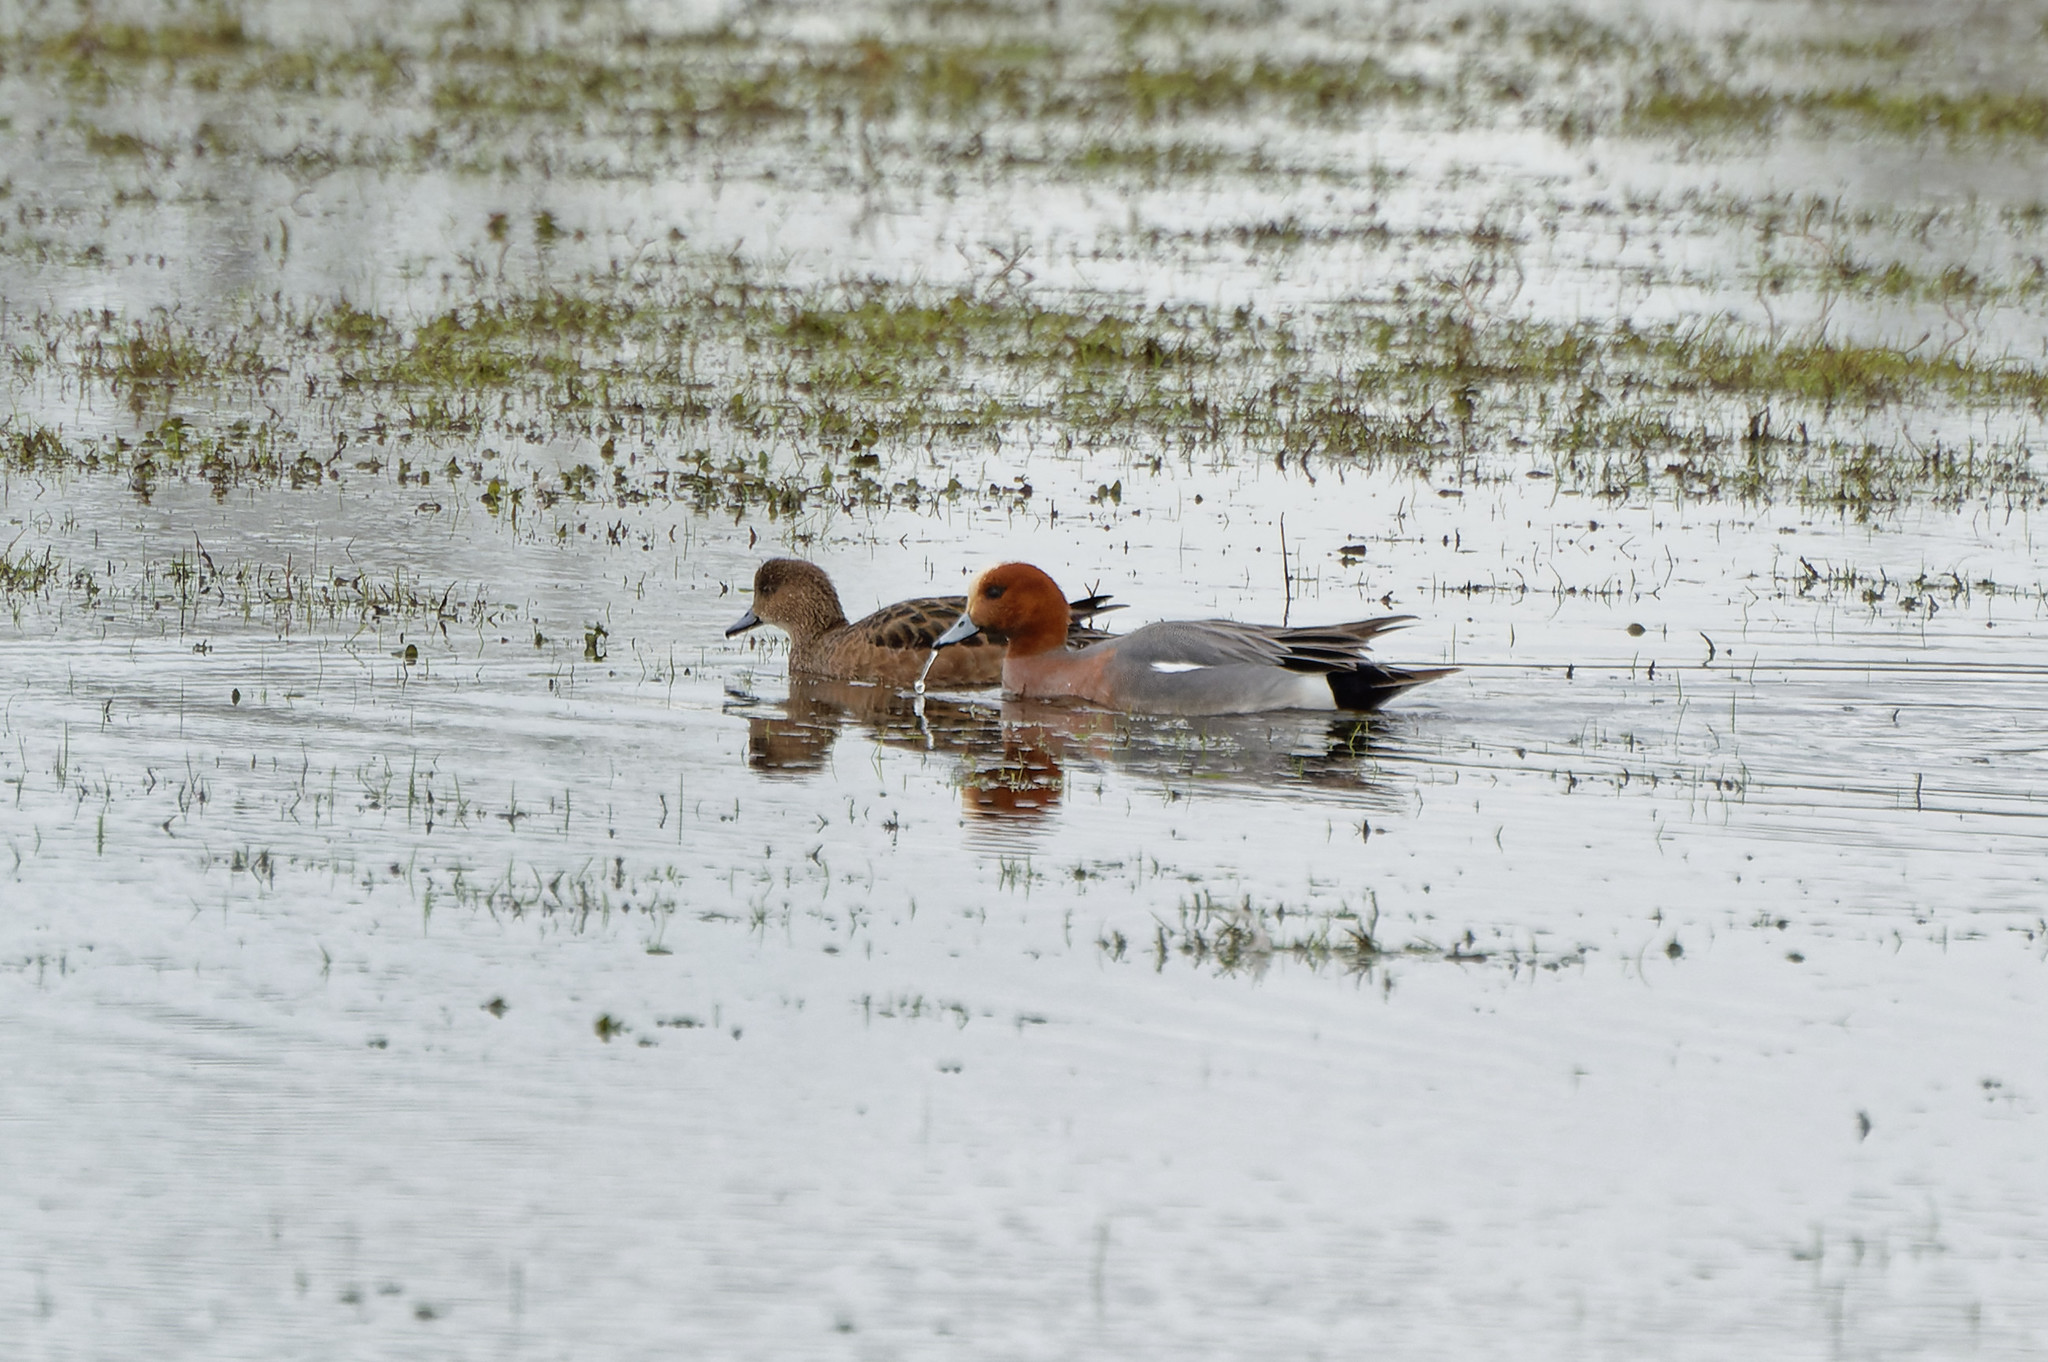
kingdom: Animalia
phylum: Chordata
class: Aves
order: Anseriformes
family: Anatidae
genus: Mareca
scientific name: Mareca penelope
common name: Eurasian wigeon
